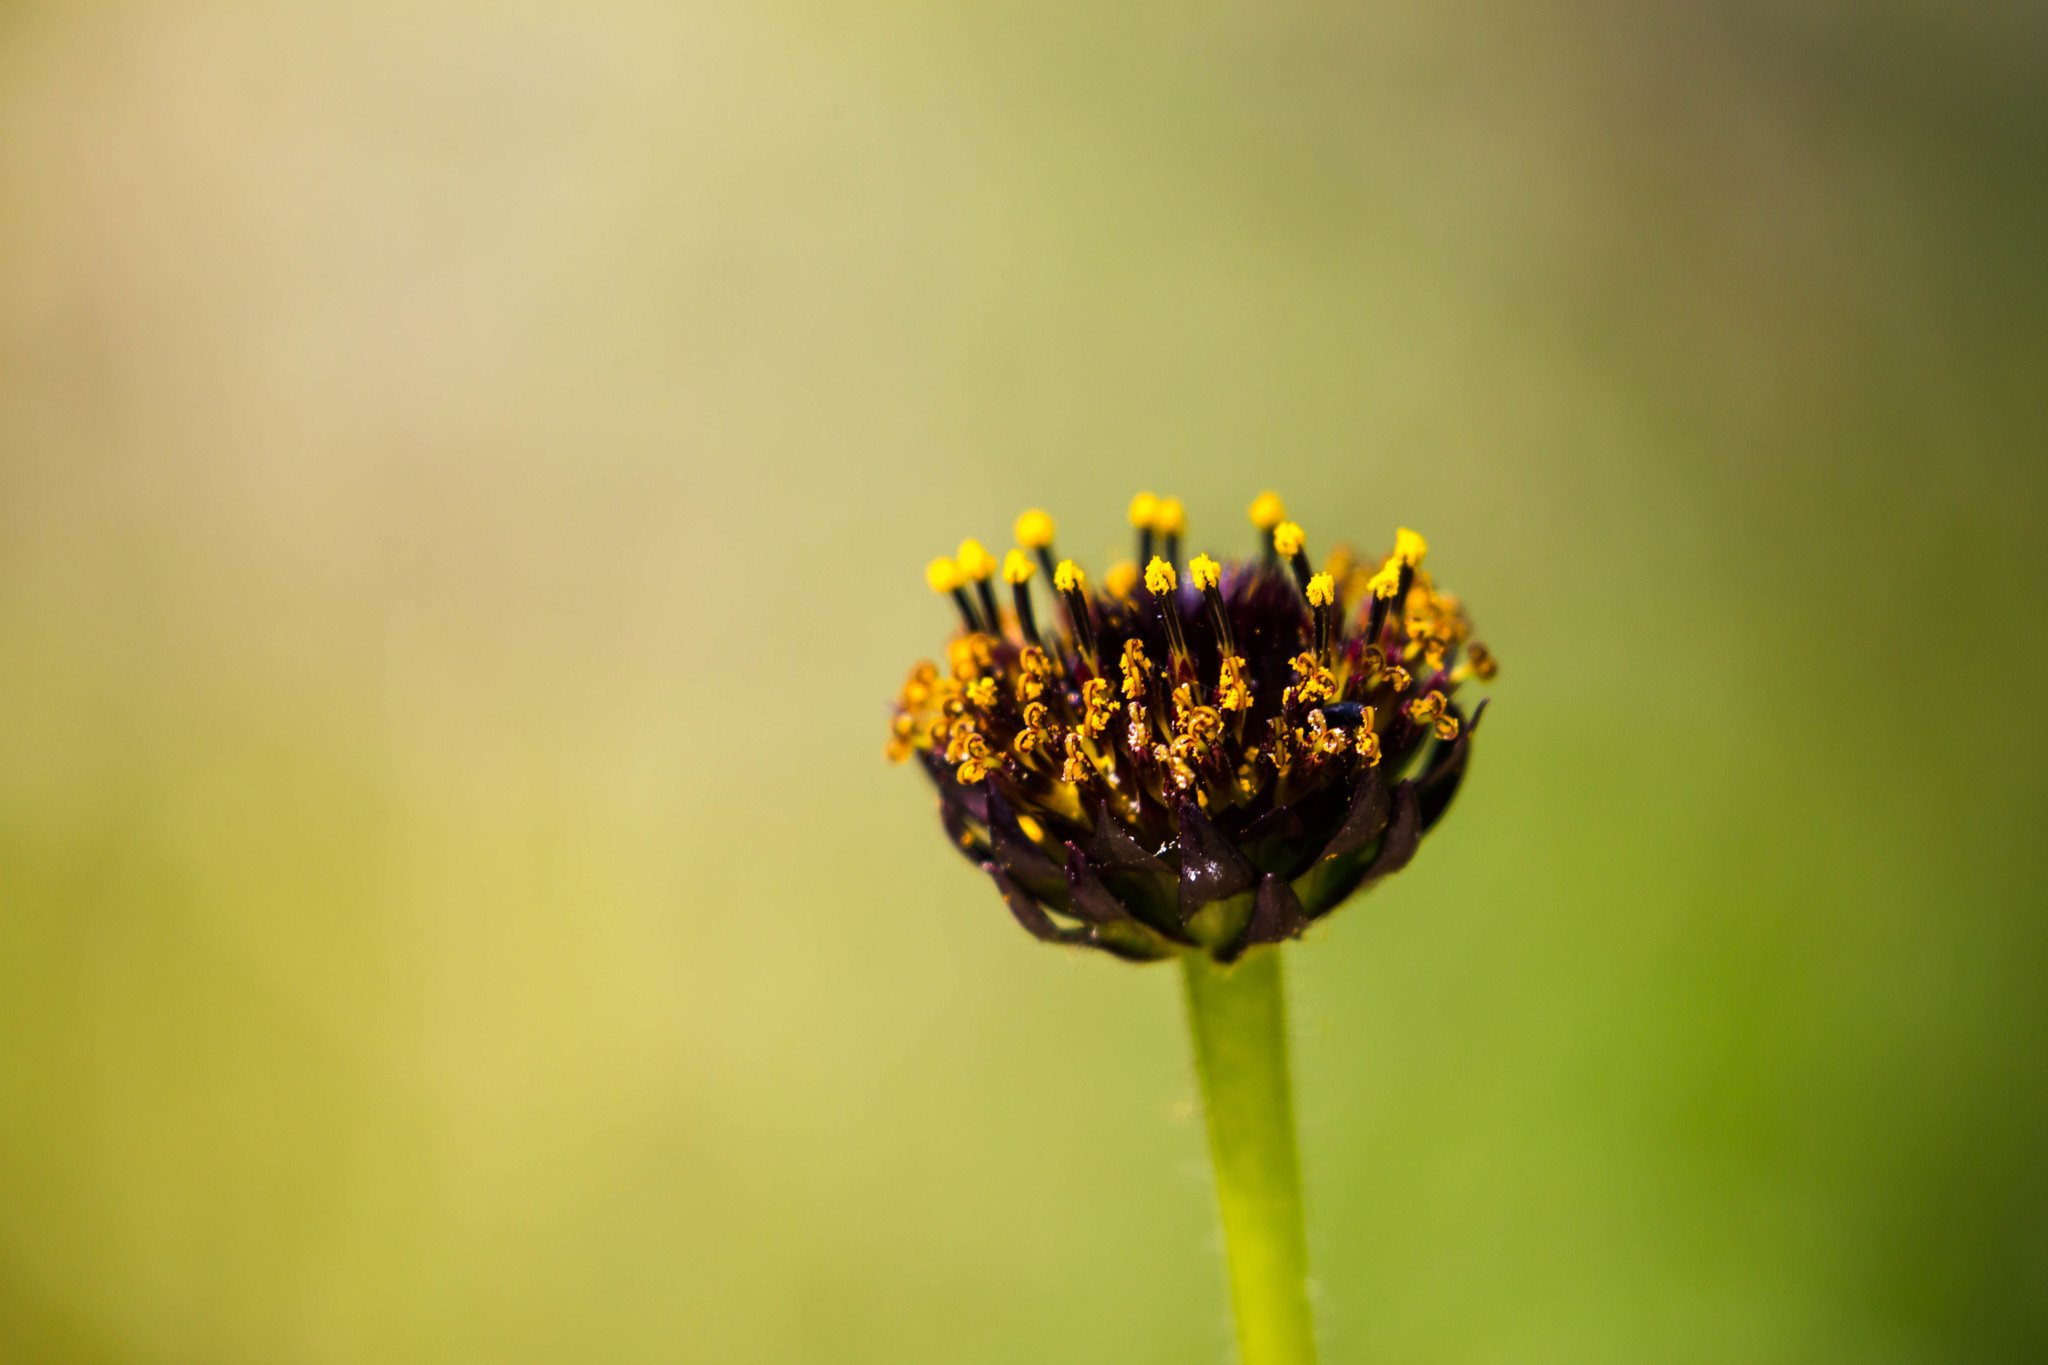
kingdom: Plantae
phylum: Tracheophyta
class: Magnoliopsida
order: Asterales
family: Asteraceae
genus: Helianthus
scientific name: Helianthus radula
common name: Pineland sunflower
